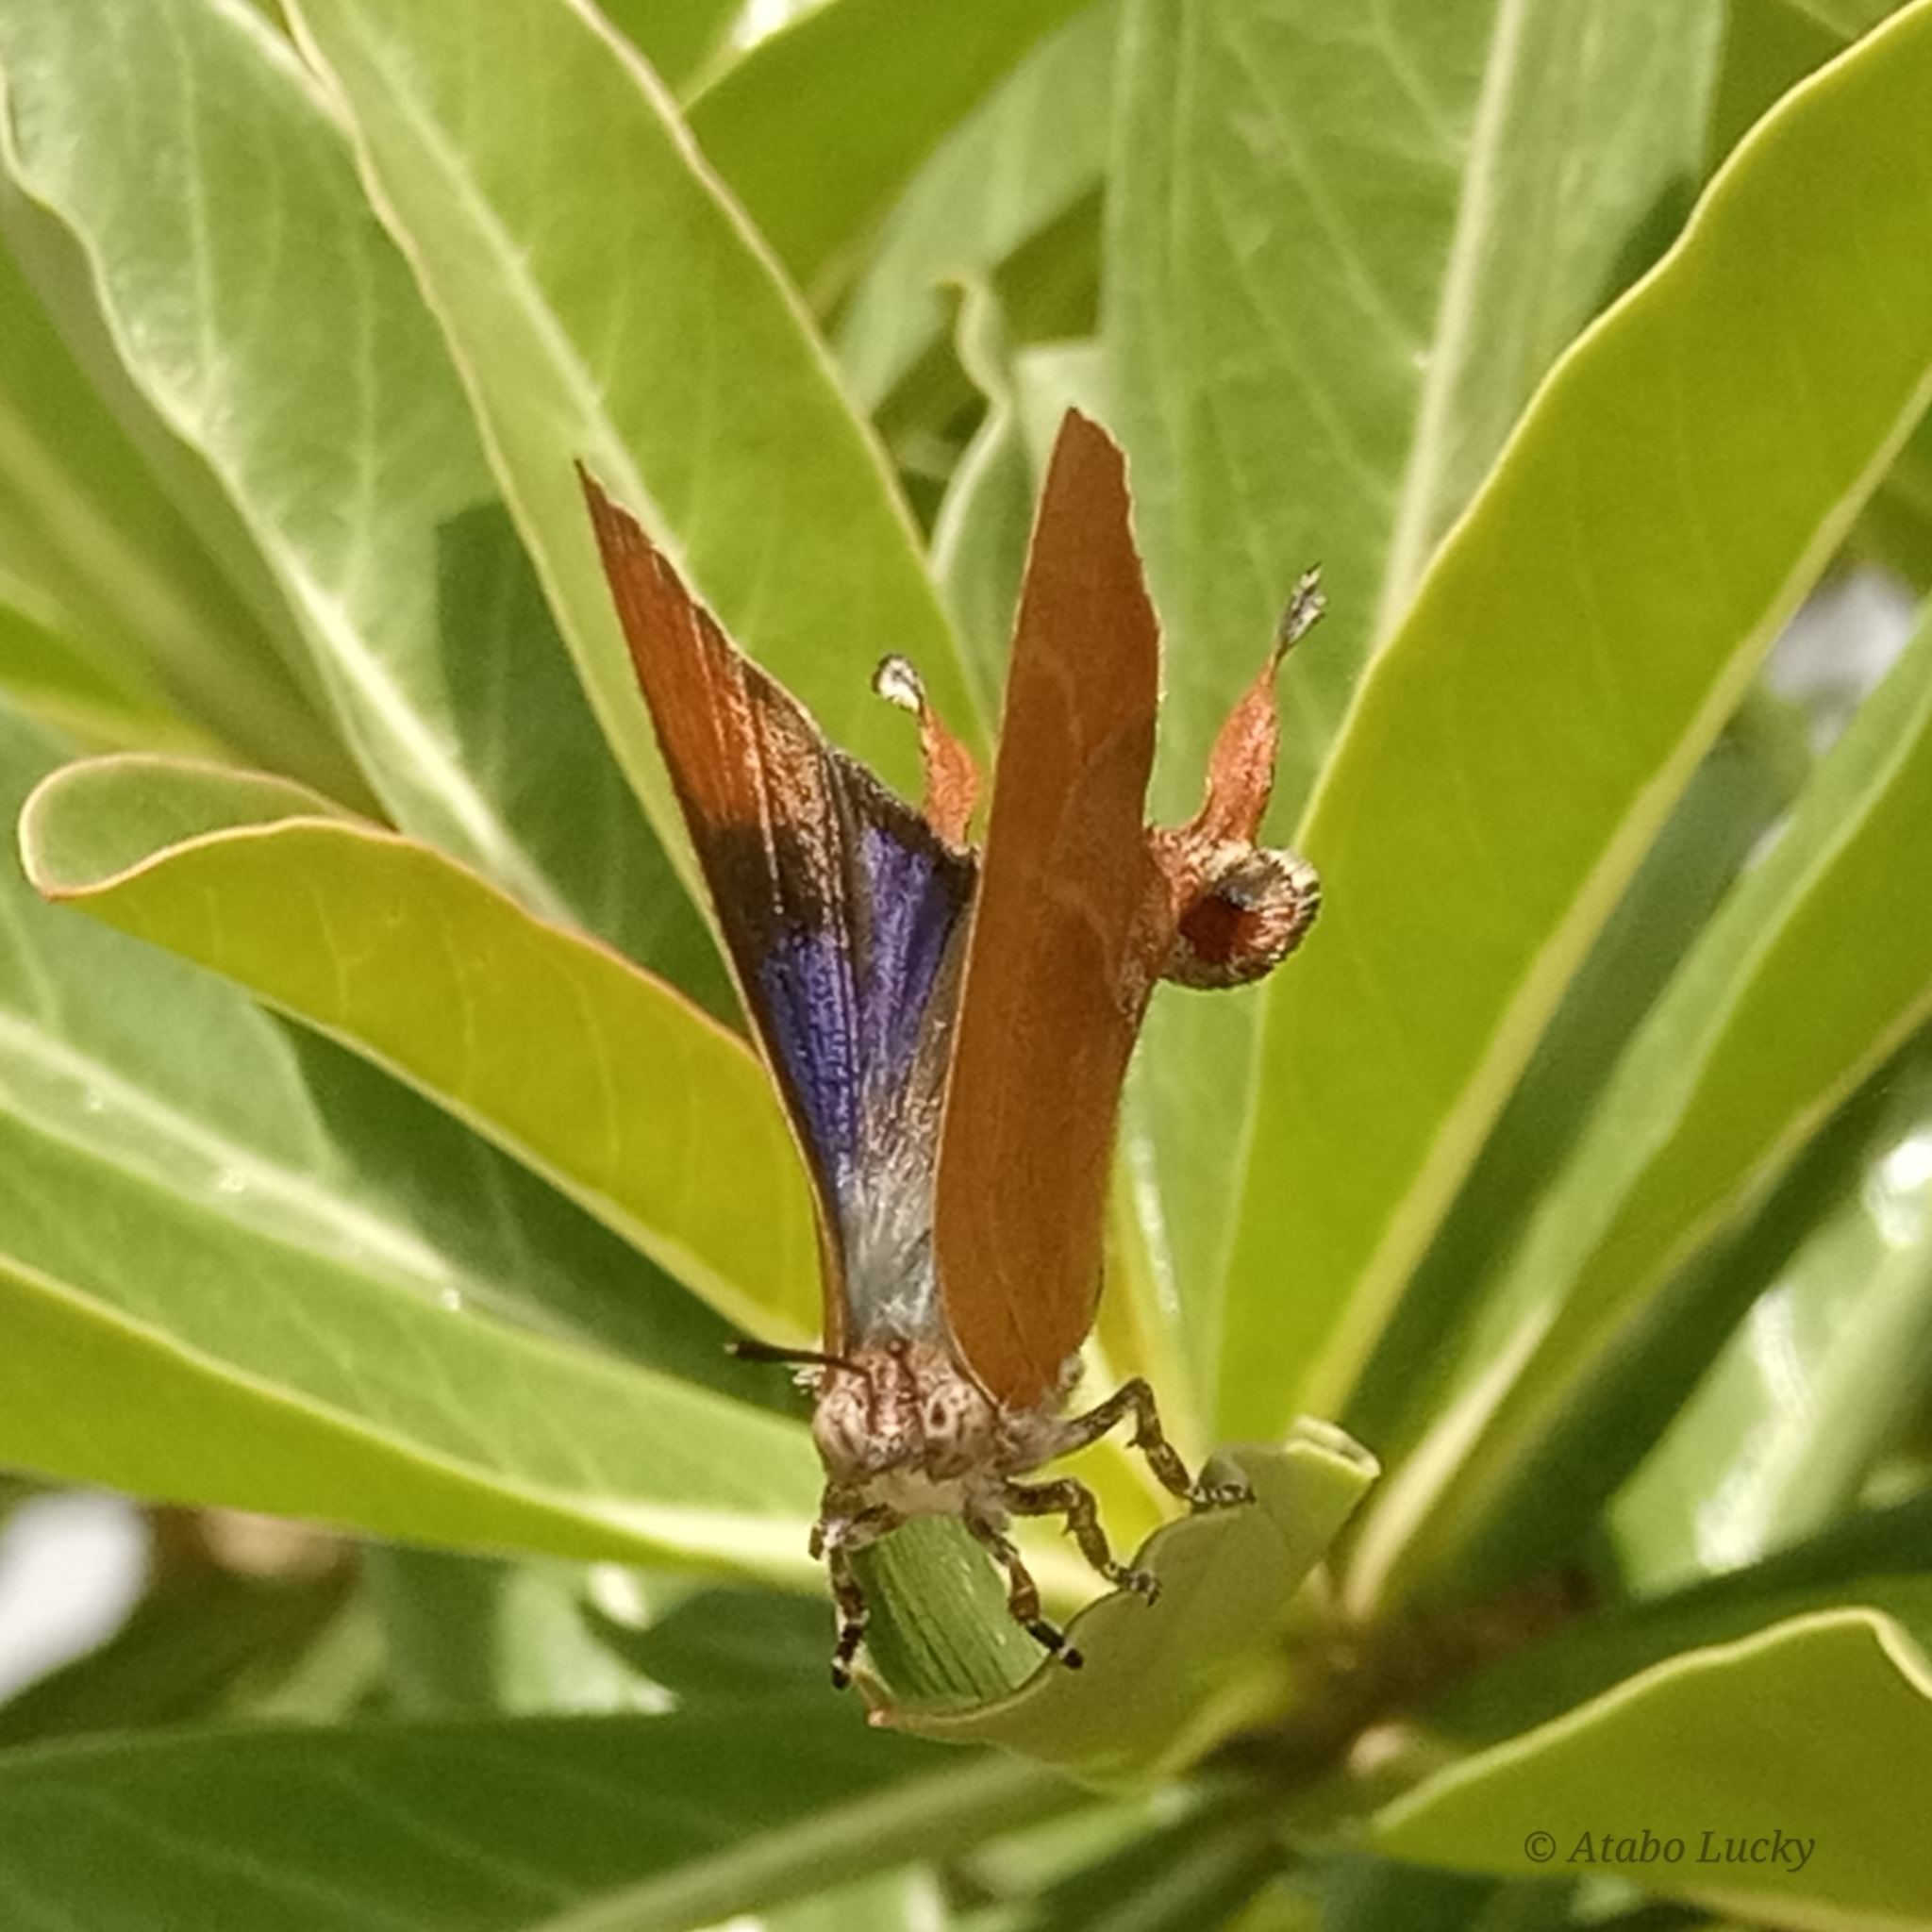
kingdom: Animalia
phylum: Arthropoda
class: Insecta
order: Lepidoptera
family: Lycaenidae
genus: Myrina
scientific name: Myrina silenus
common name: Amber fig-tree blue
